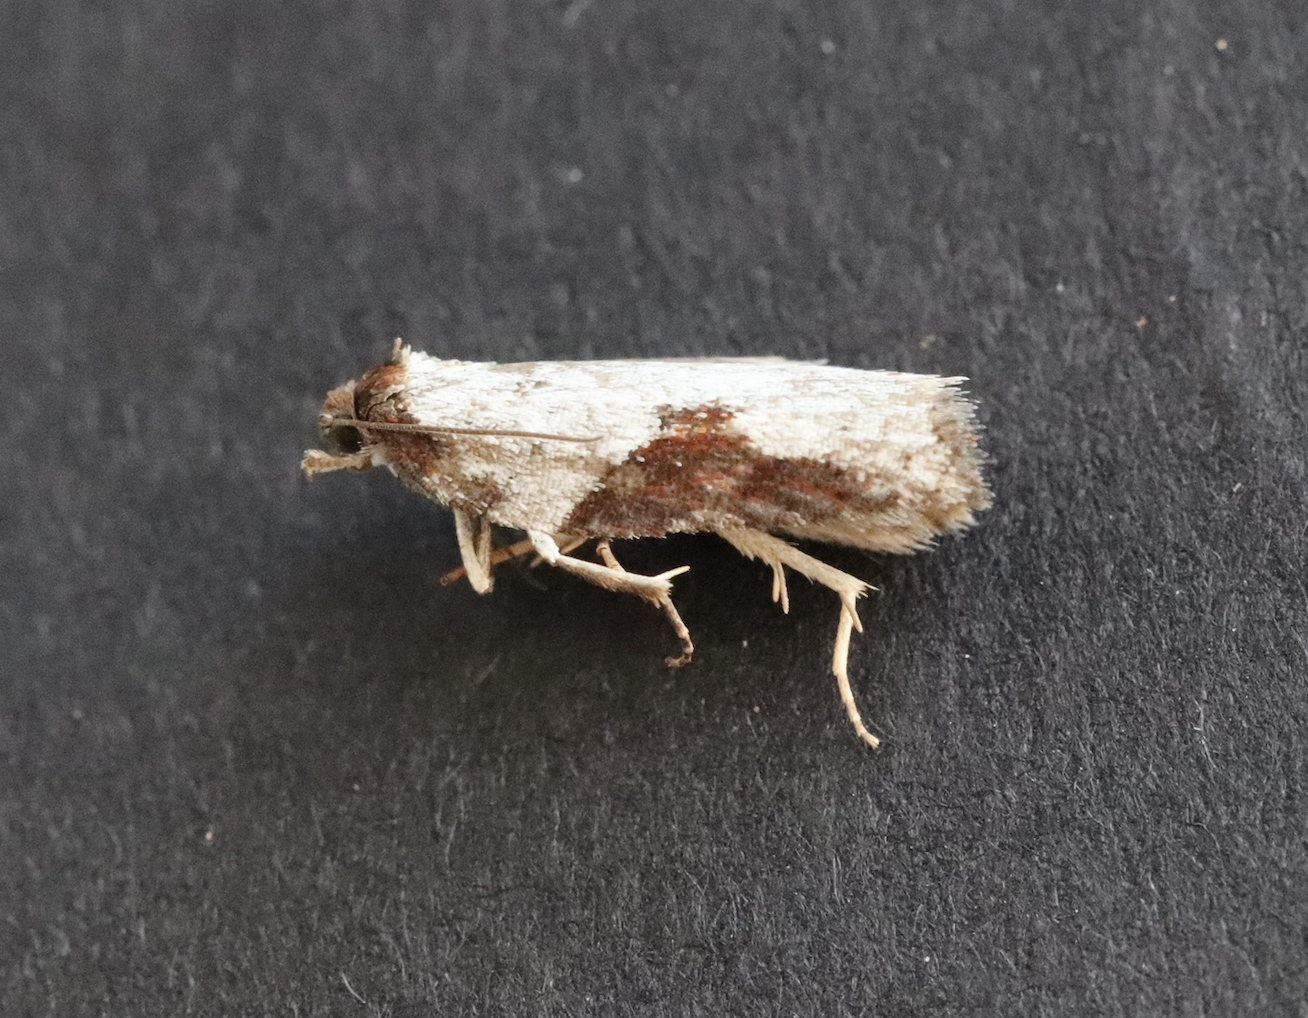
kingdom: Animalia
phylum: Arthropoda
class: Insecta
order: Lepidoptera
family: Tortricidae
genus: Acleris
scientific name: Acleris laterana
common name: Dark-triangle button
